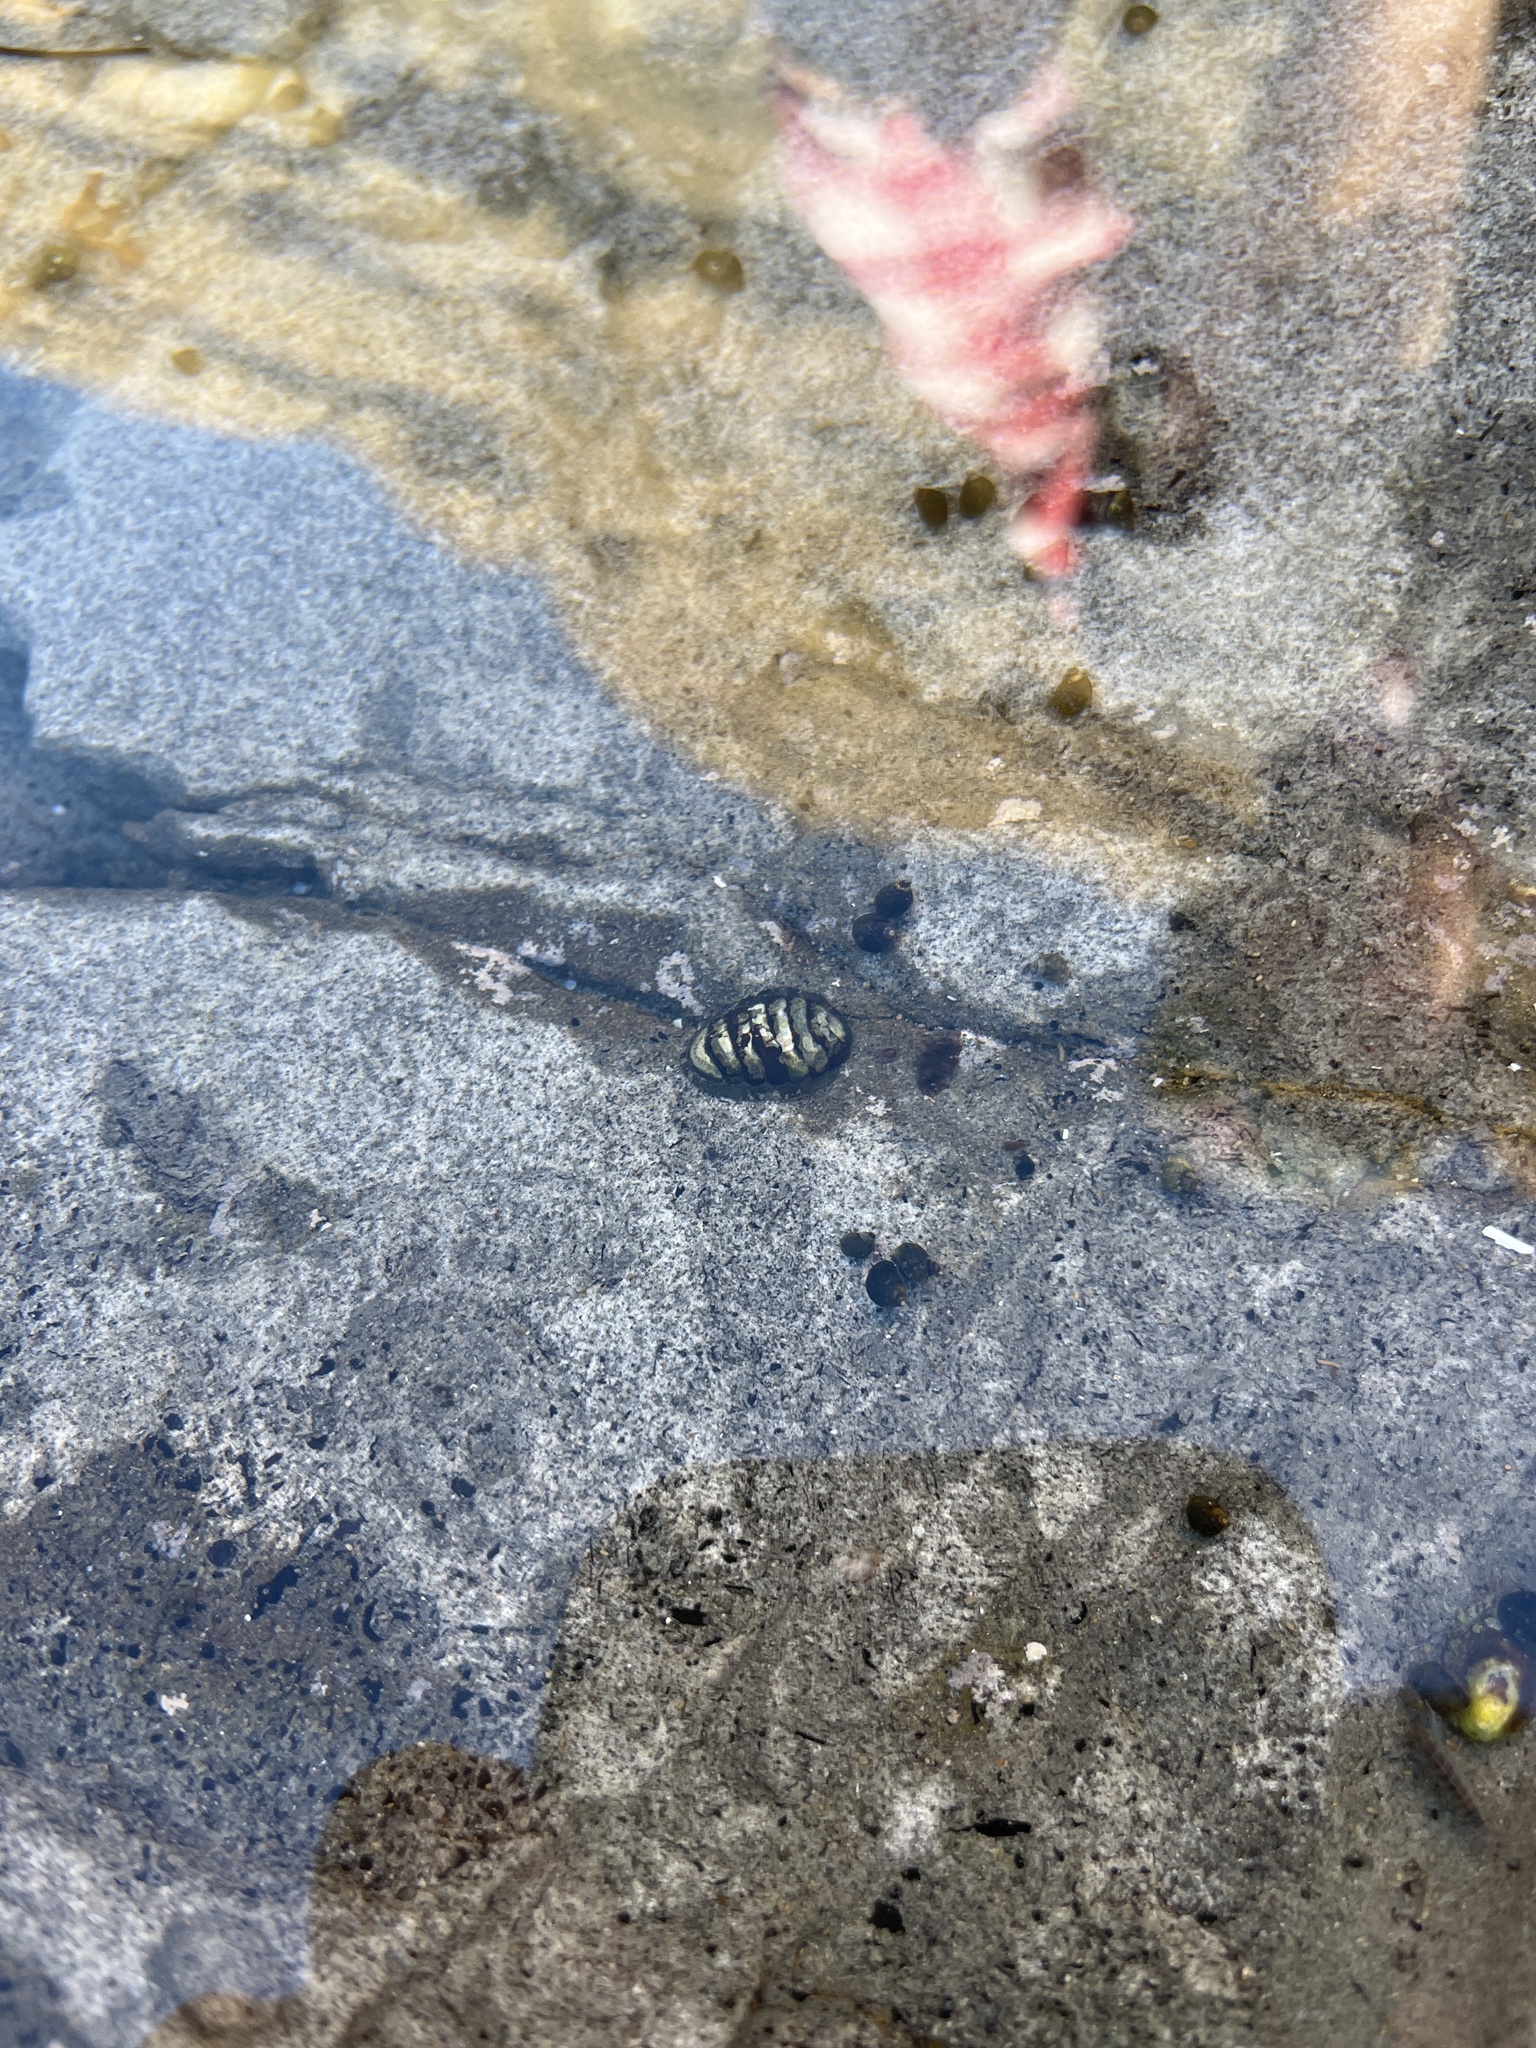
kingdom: Animalia
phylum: Mollusca
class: Polyplacophora
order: Chitonida
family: Tonicellidae
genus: Cyanoplax
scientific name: Cyanoplax hartwegii
